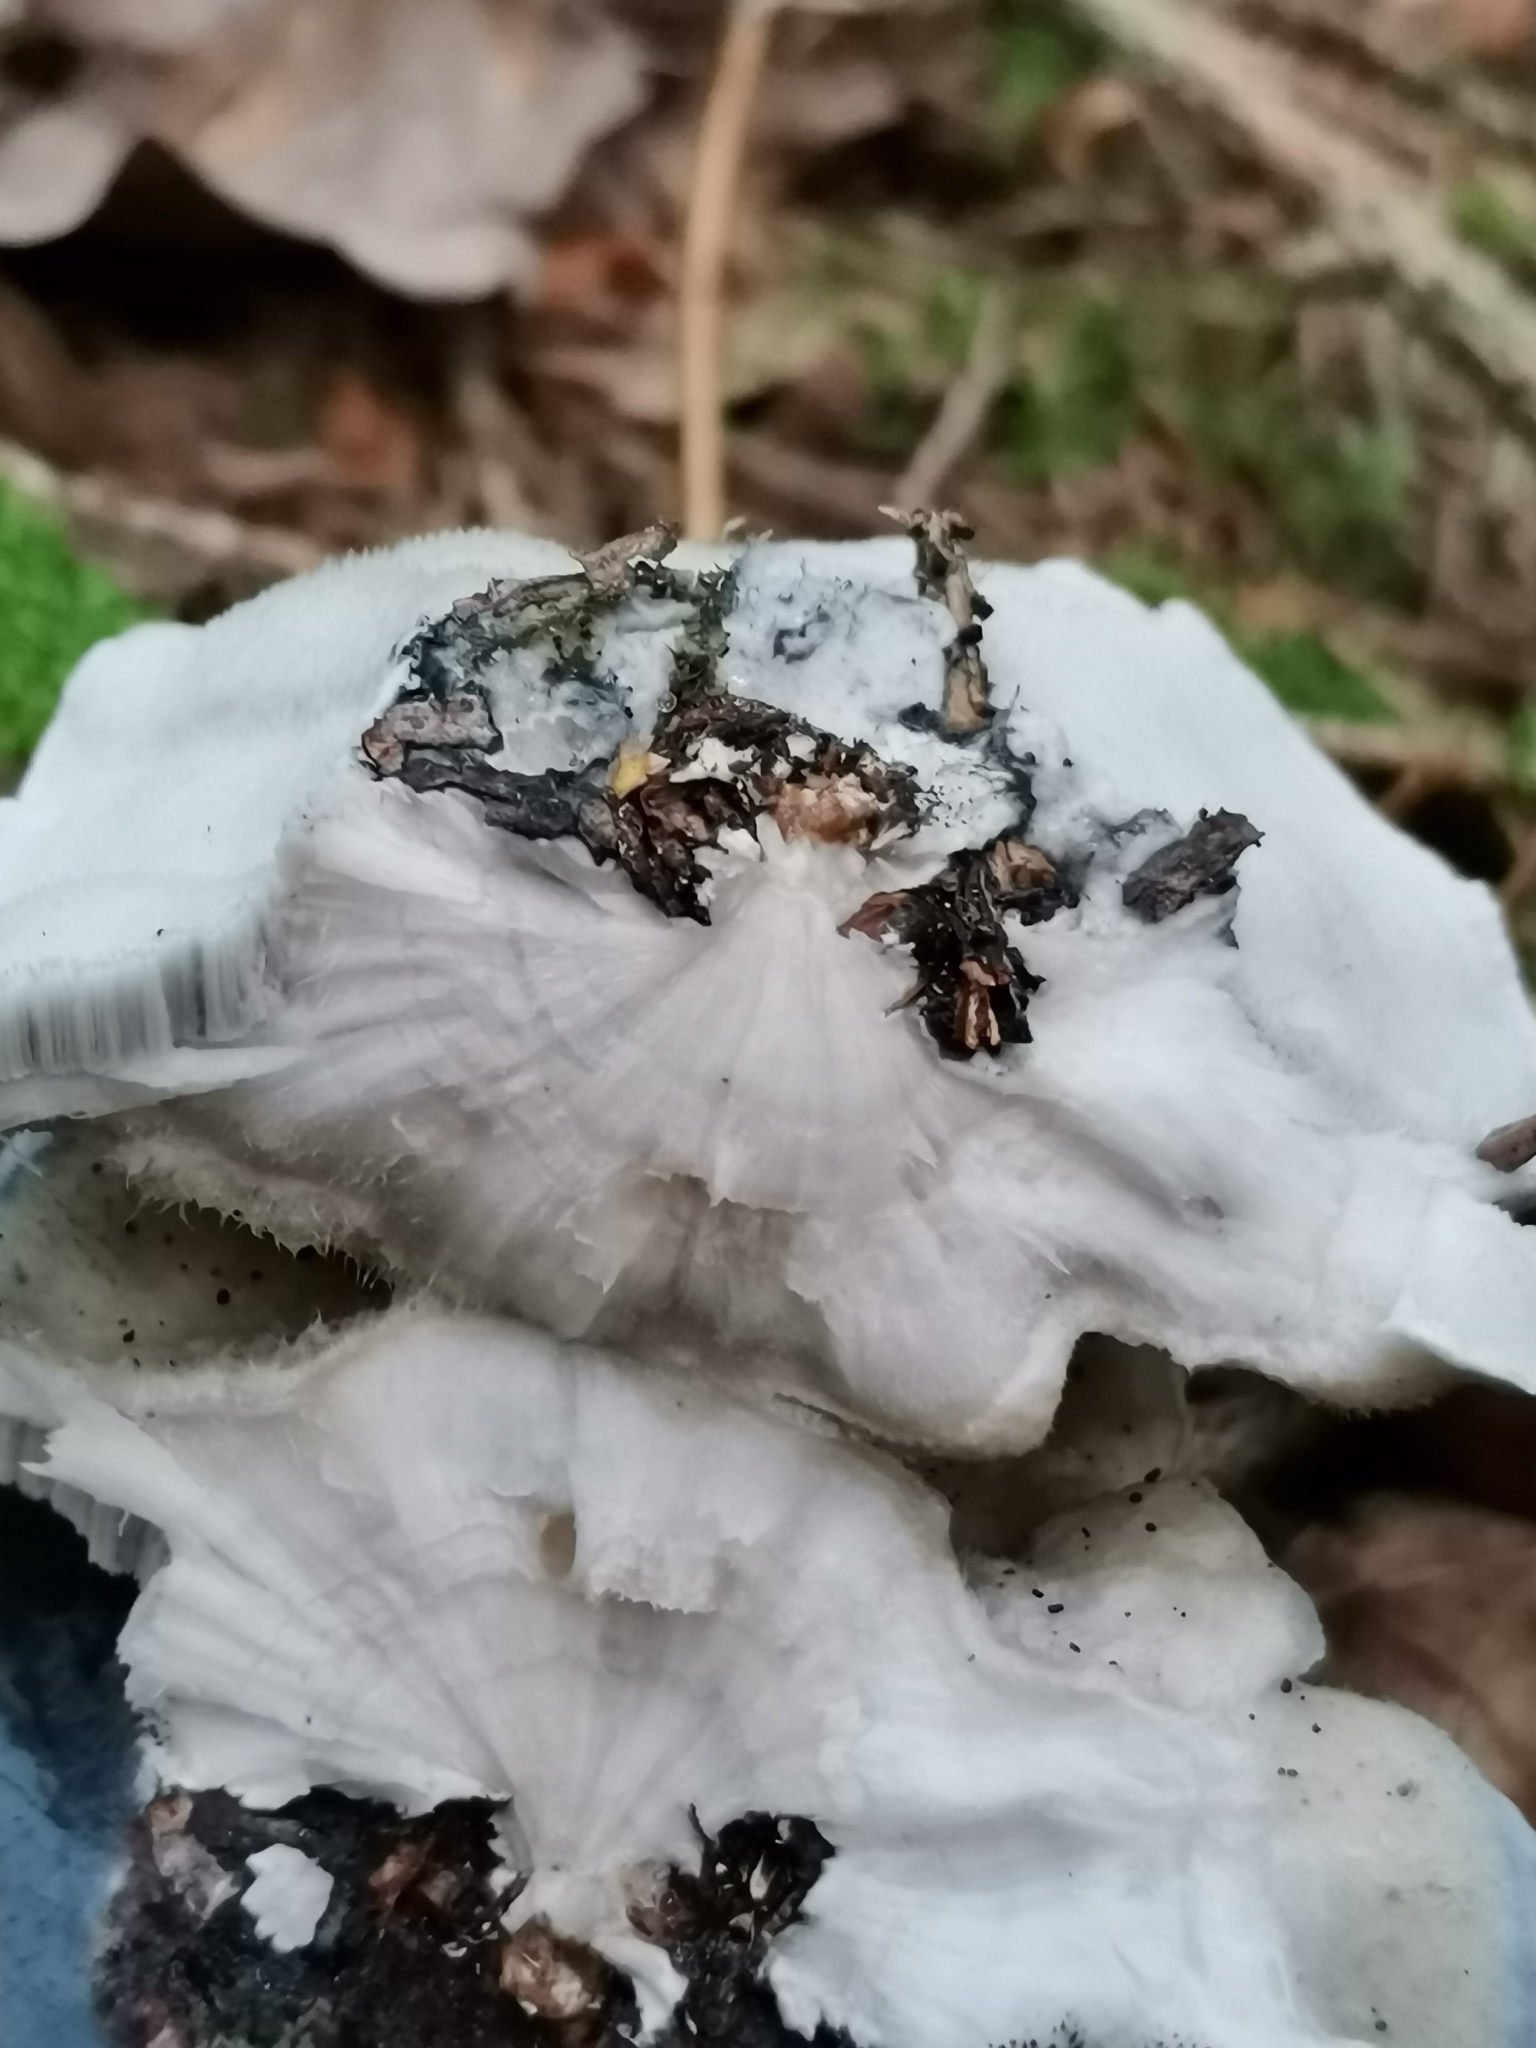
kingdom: Fungi
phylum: Basidiomycota
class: Agaricomycetes
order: Polyporales
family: Polyporaceae
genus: Cyanosporus
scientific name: Cyanosporus caesius
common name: Blue cheese polypore
